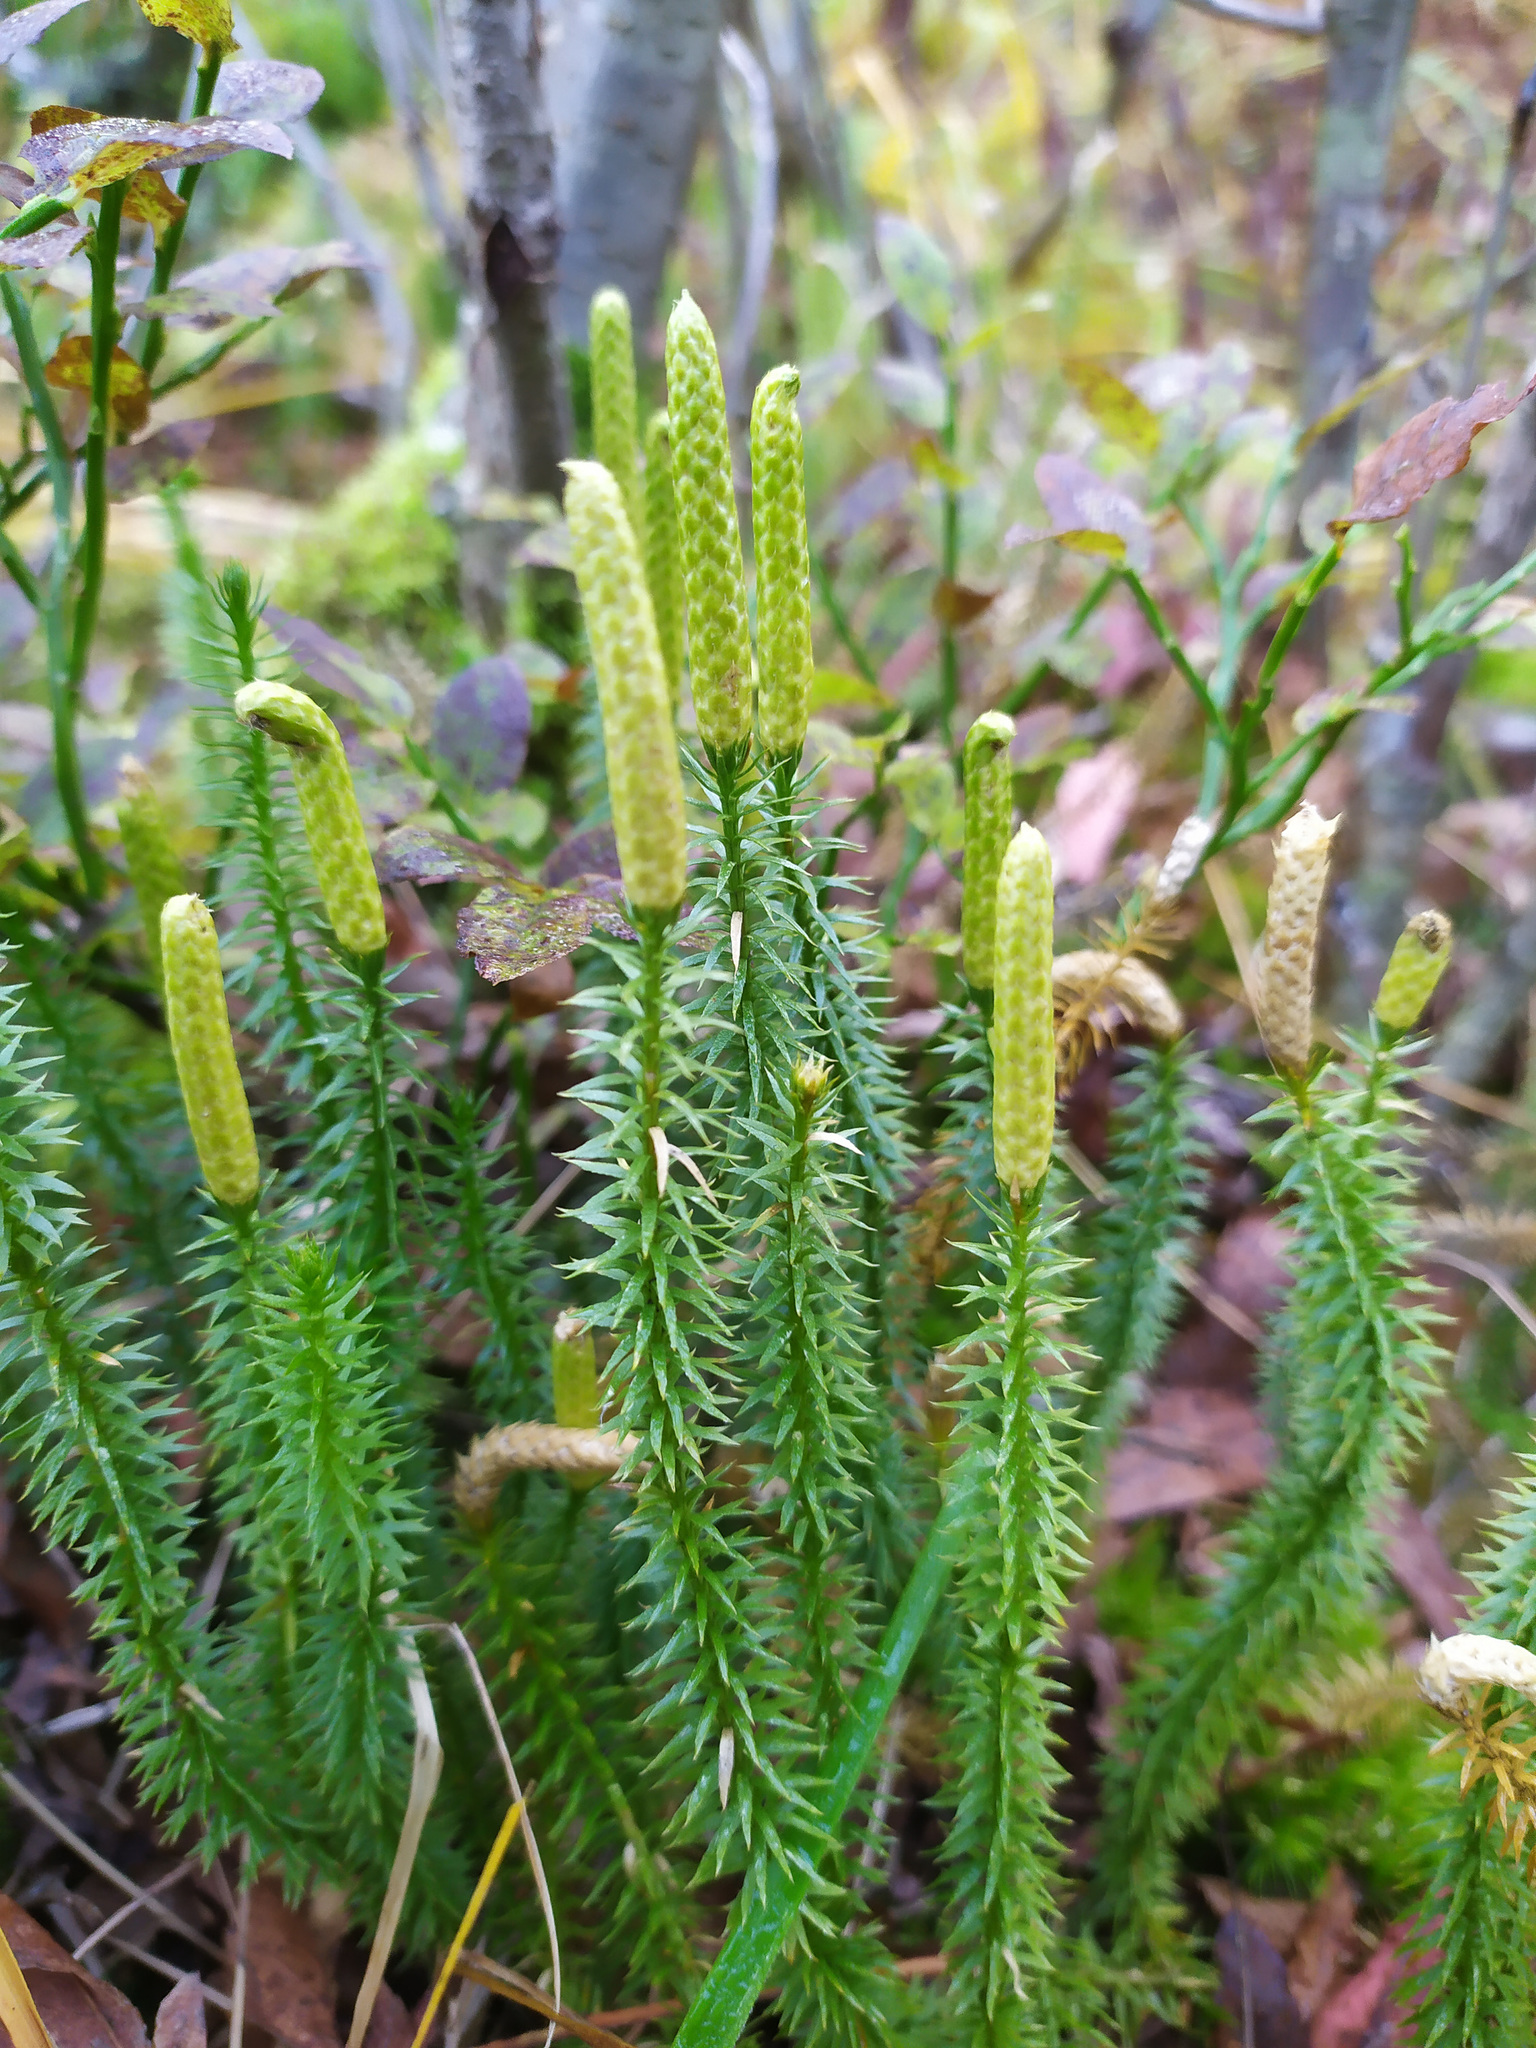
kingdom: Plantae
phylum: Tracheophyta
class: Lycopodiopsida
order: Lycopodiales
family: Lycopodiaceae
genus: Spinulum
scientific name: Spinulum annotinum
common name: Interrupted club-moss
